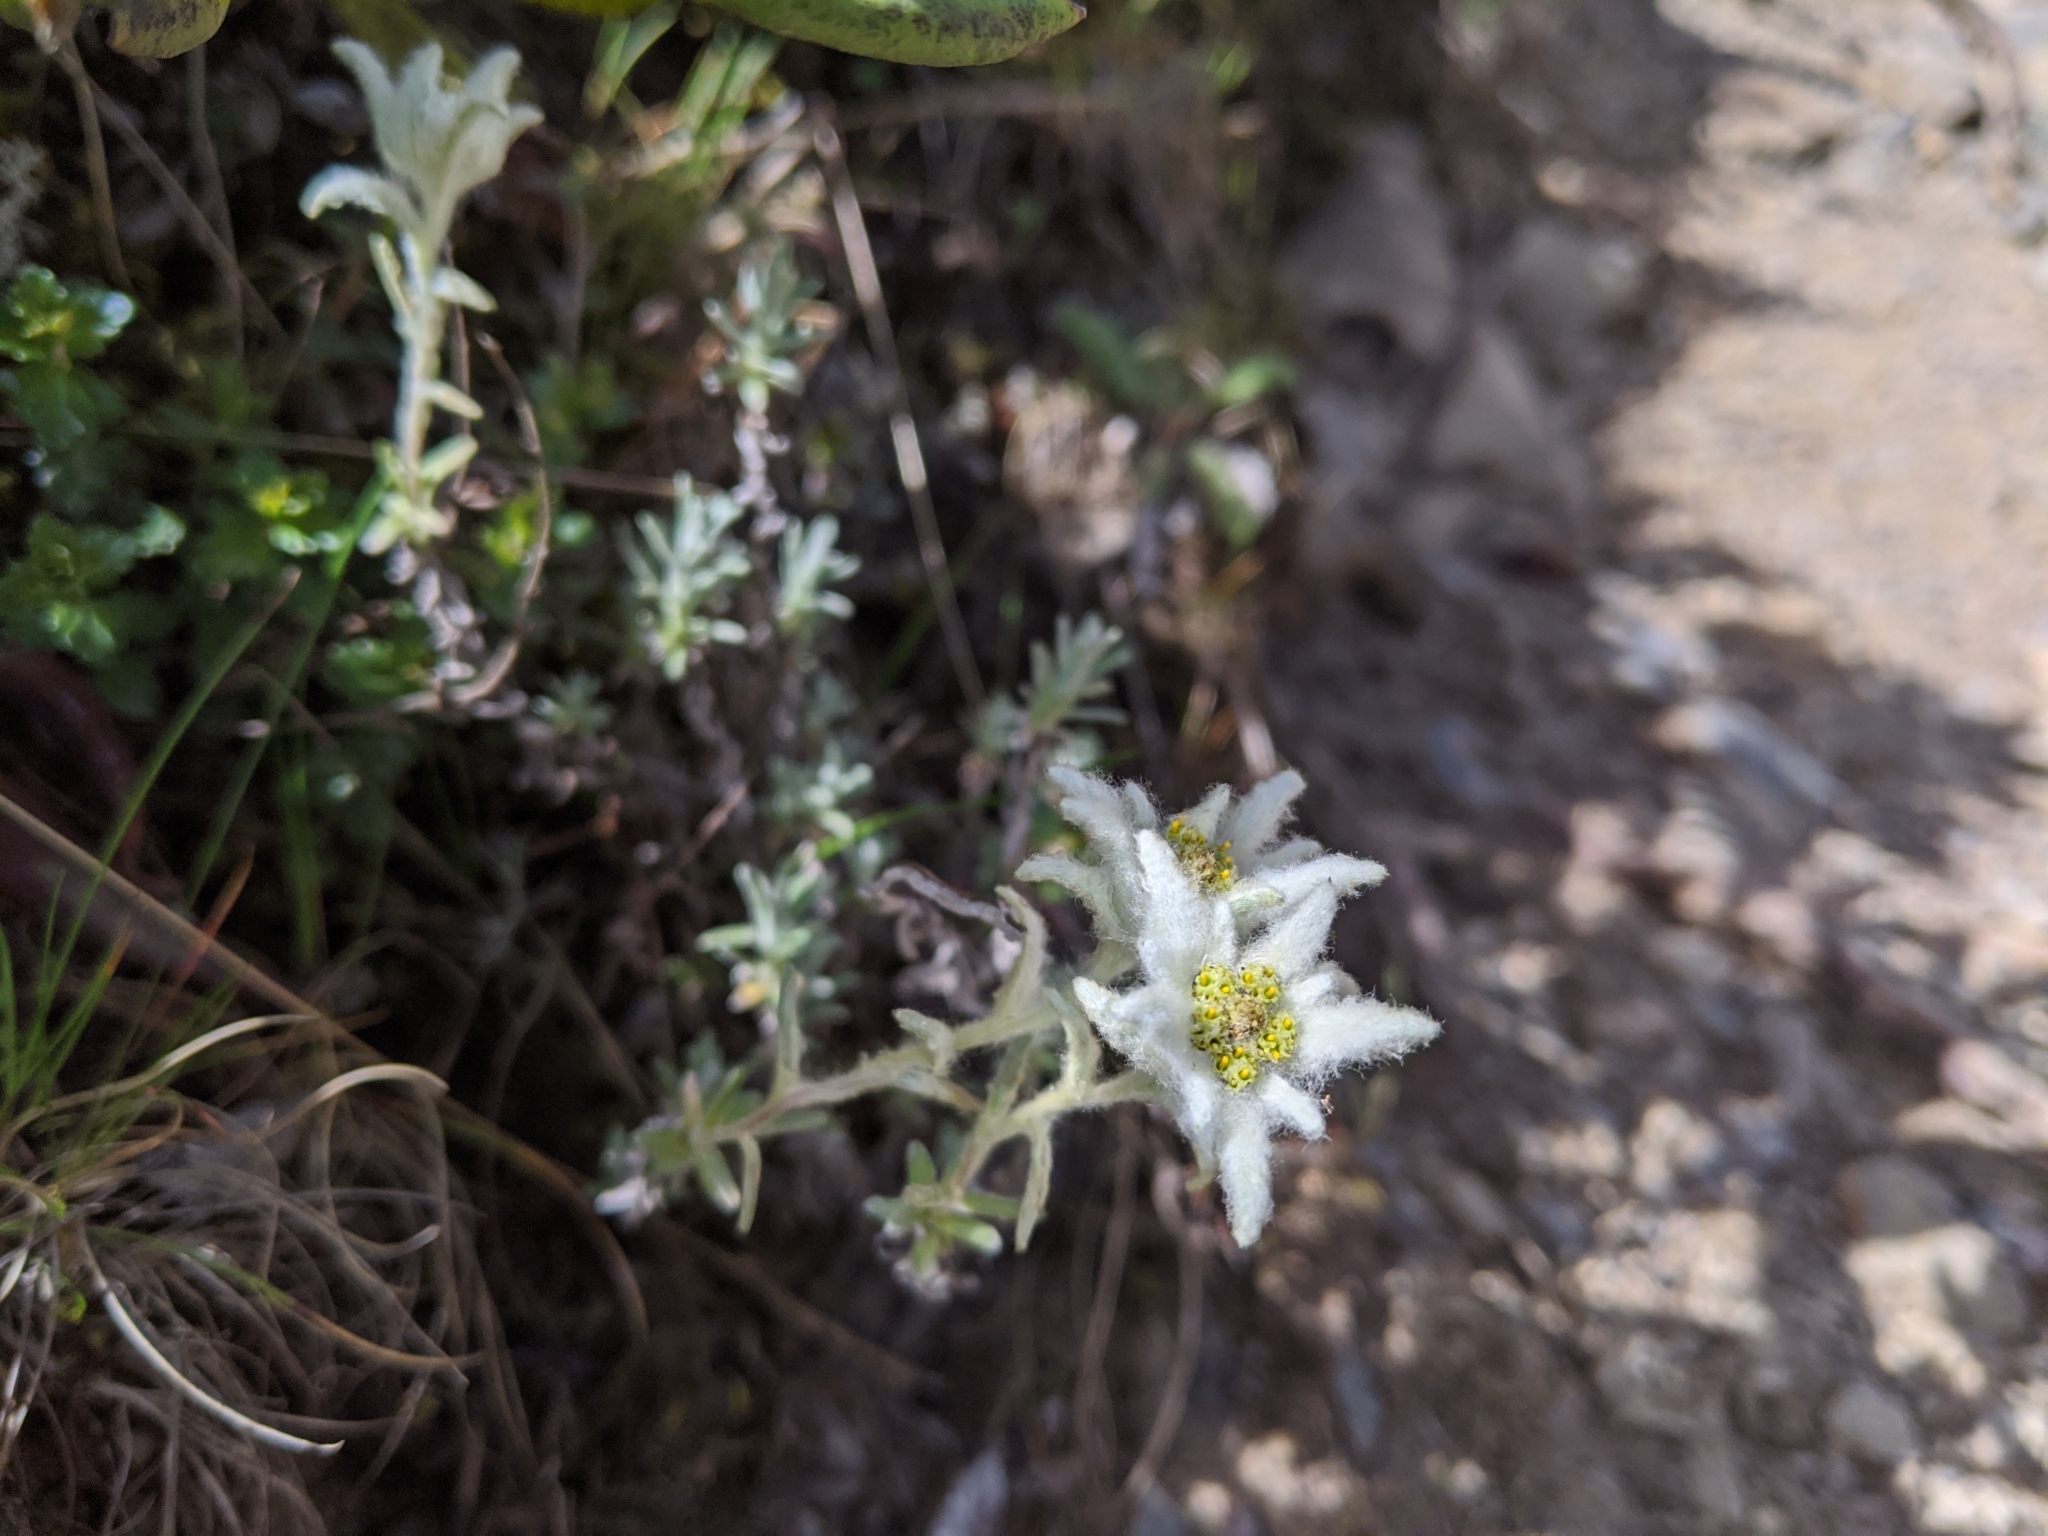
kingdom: Plantae
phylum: Tracheophyta
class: Magnoliopsida
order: Asterales
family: Asteraceae
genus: Leontopodium
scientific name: Leontopodium microphyllum
